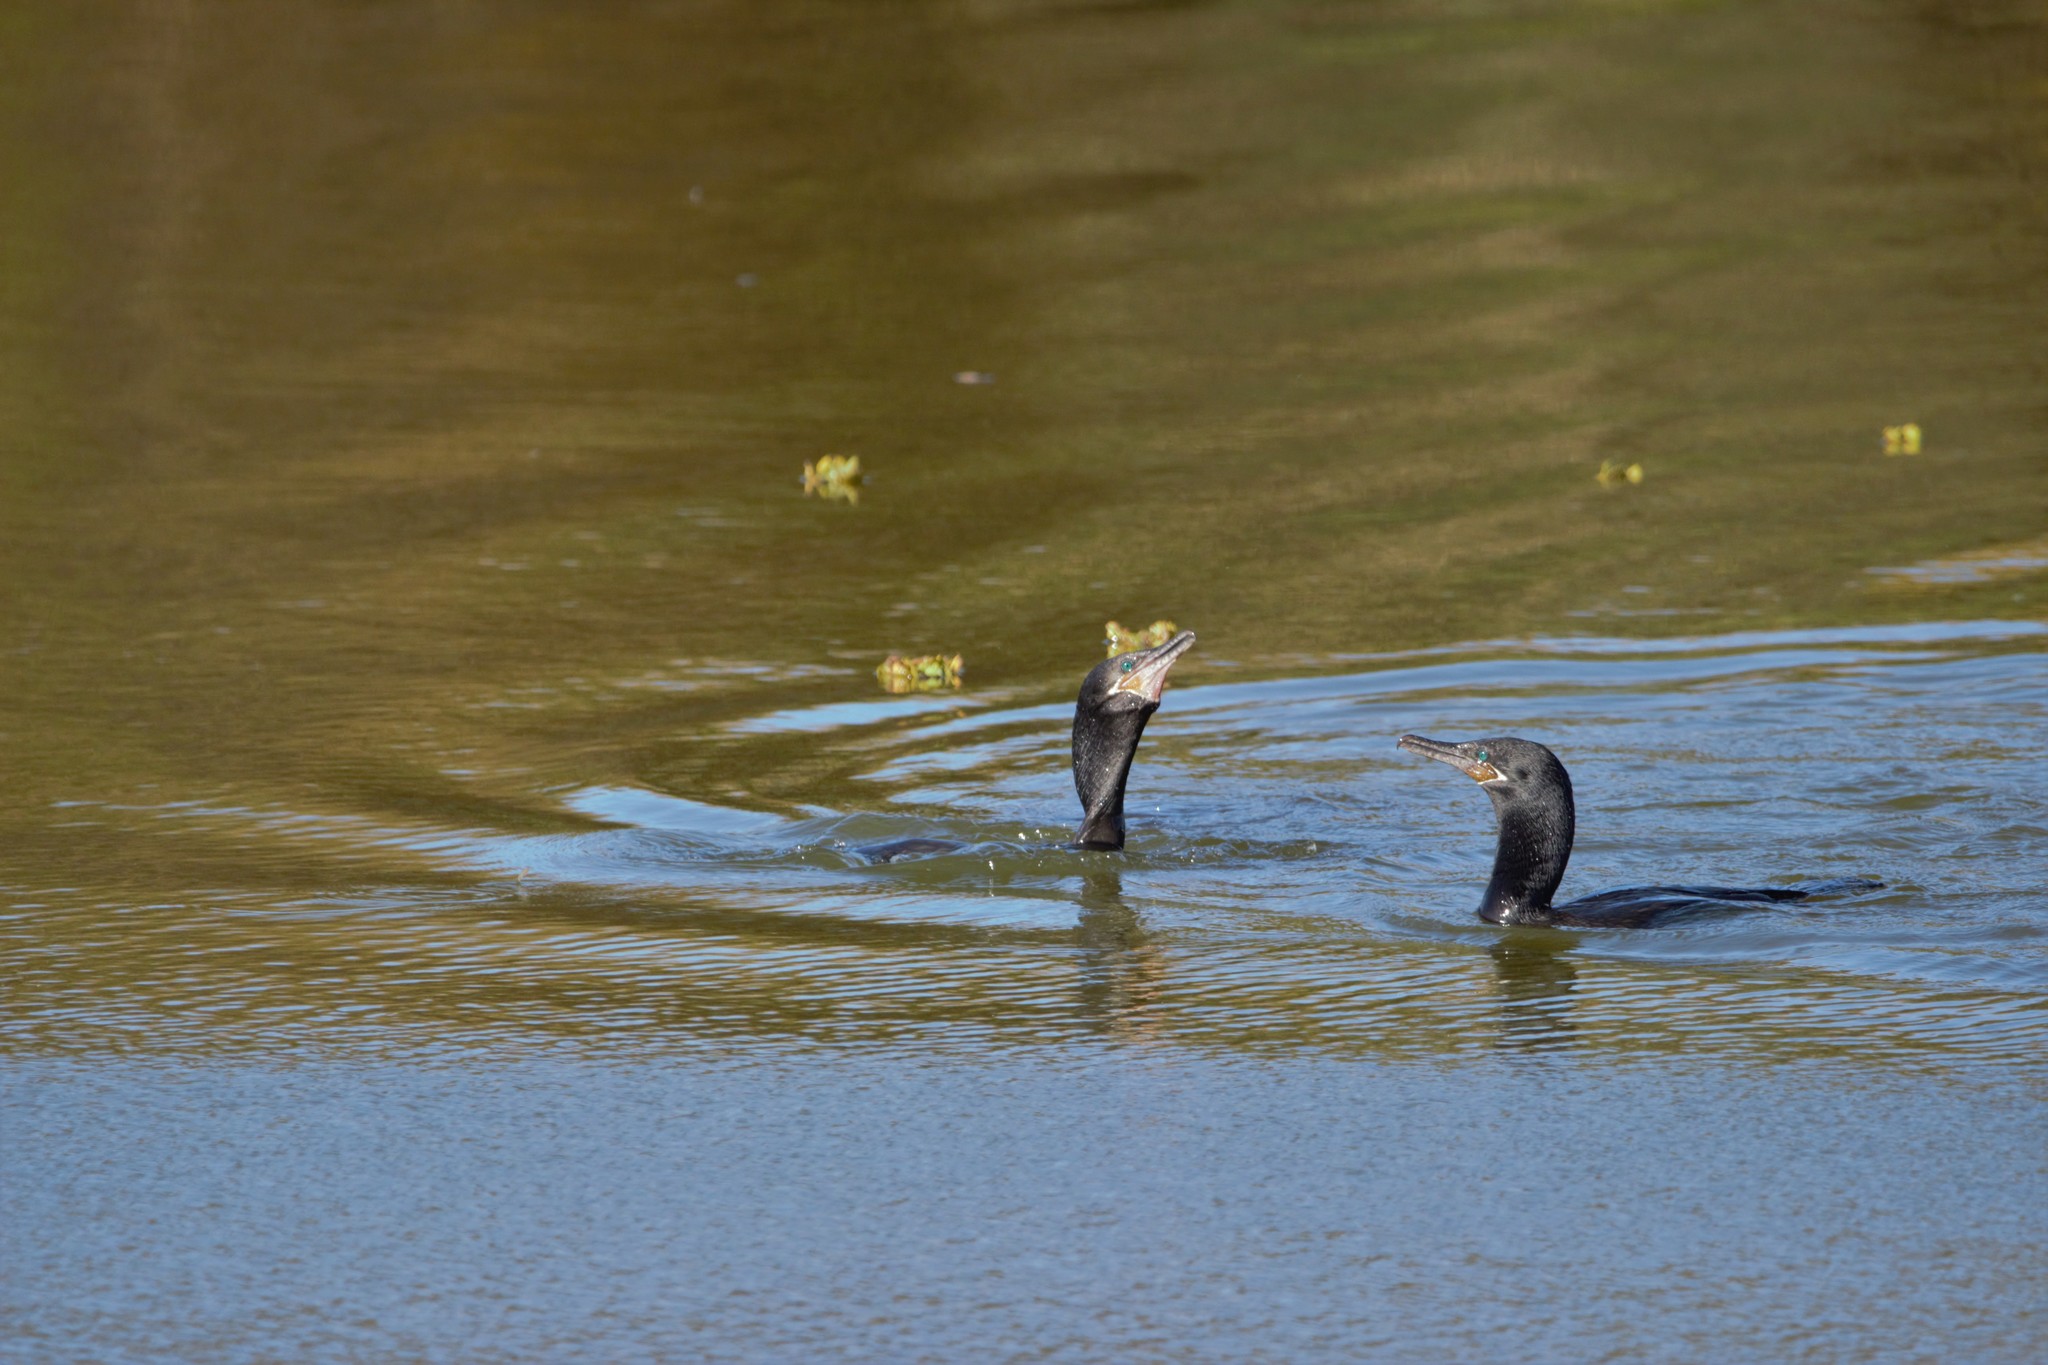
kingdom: Animalia
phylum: Chordata
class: Aves
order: Suliformes
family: Phalacrocoracidae
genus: Phalacrocorax
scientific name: Phalacrocorax brasilianus
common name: Neotropic cormorant
